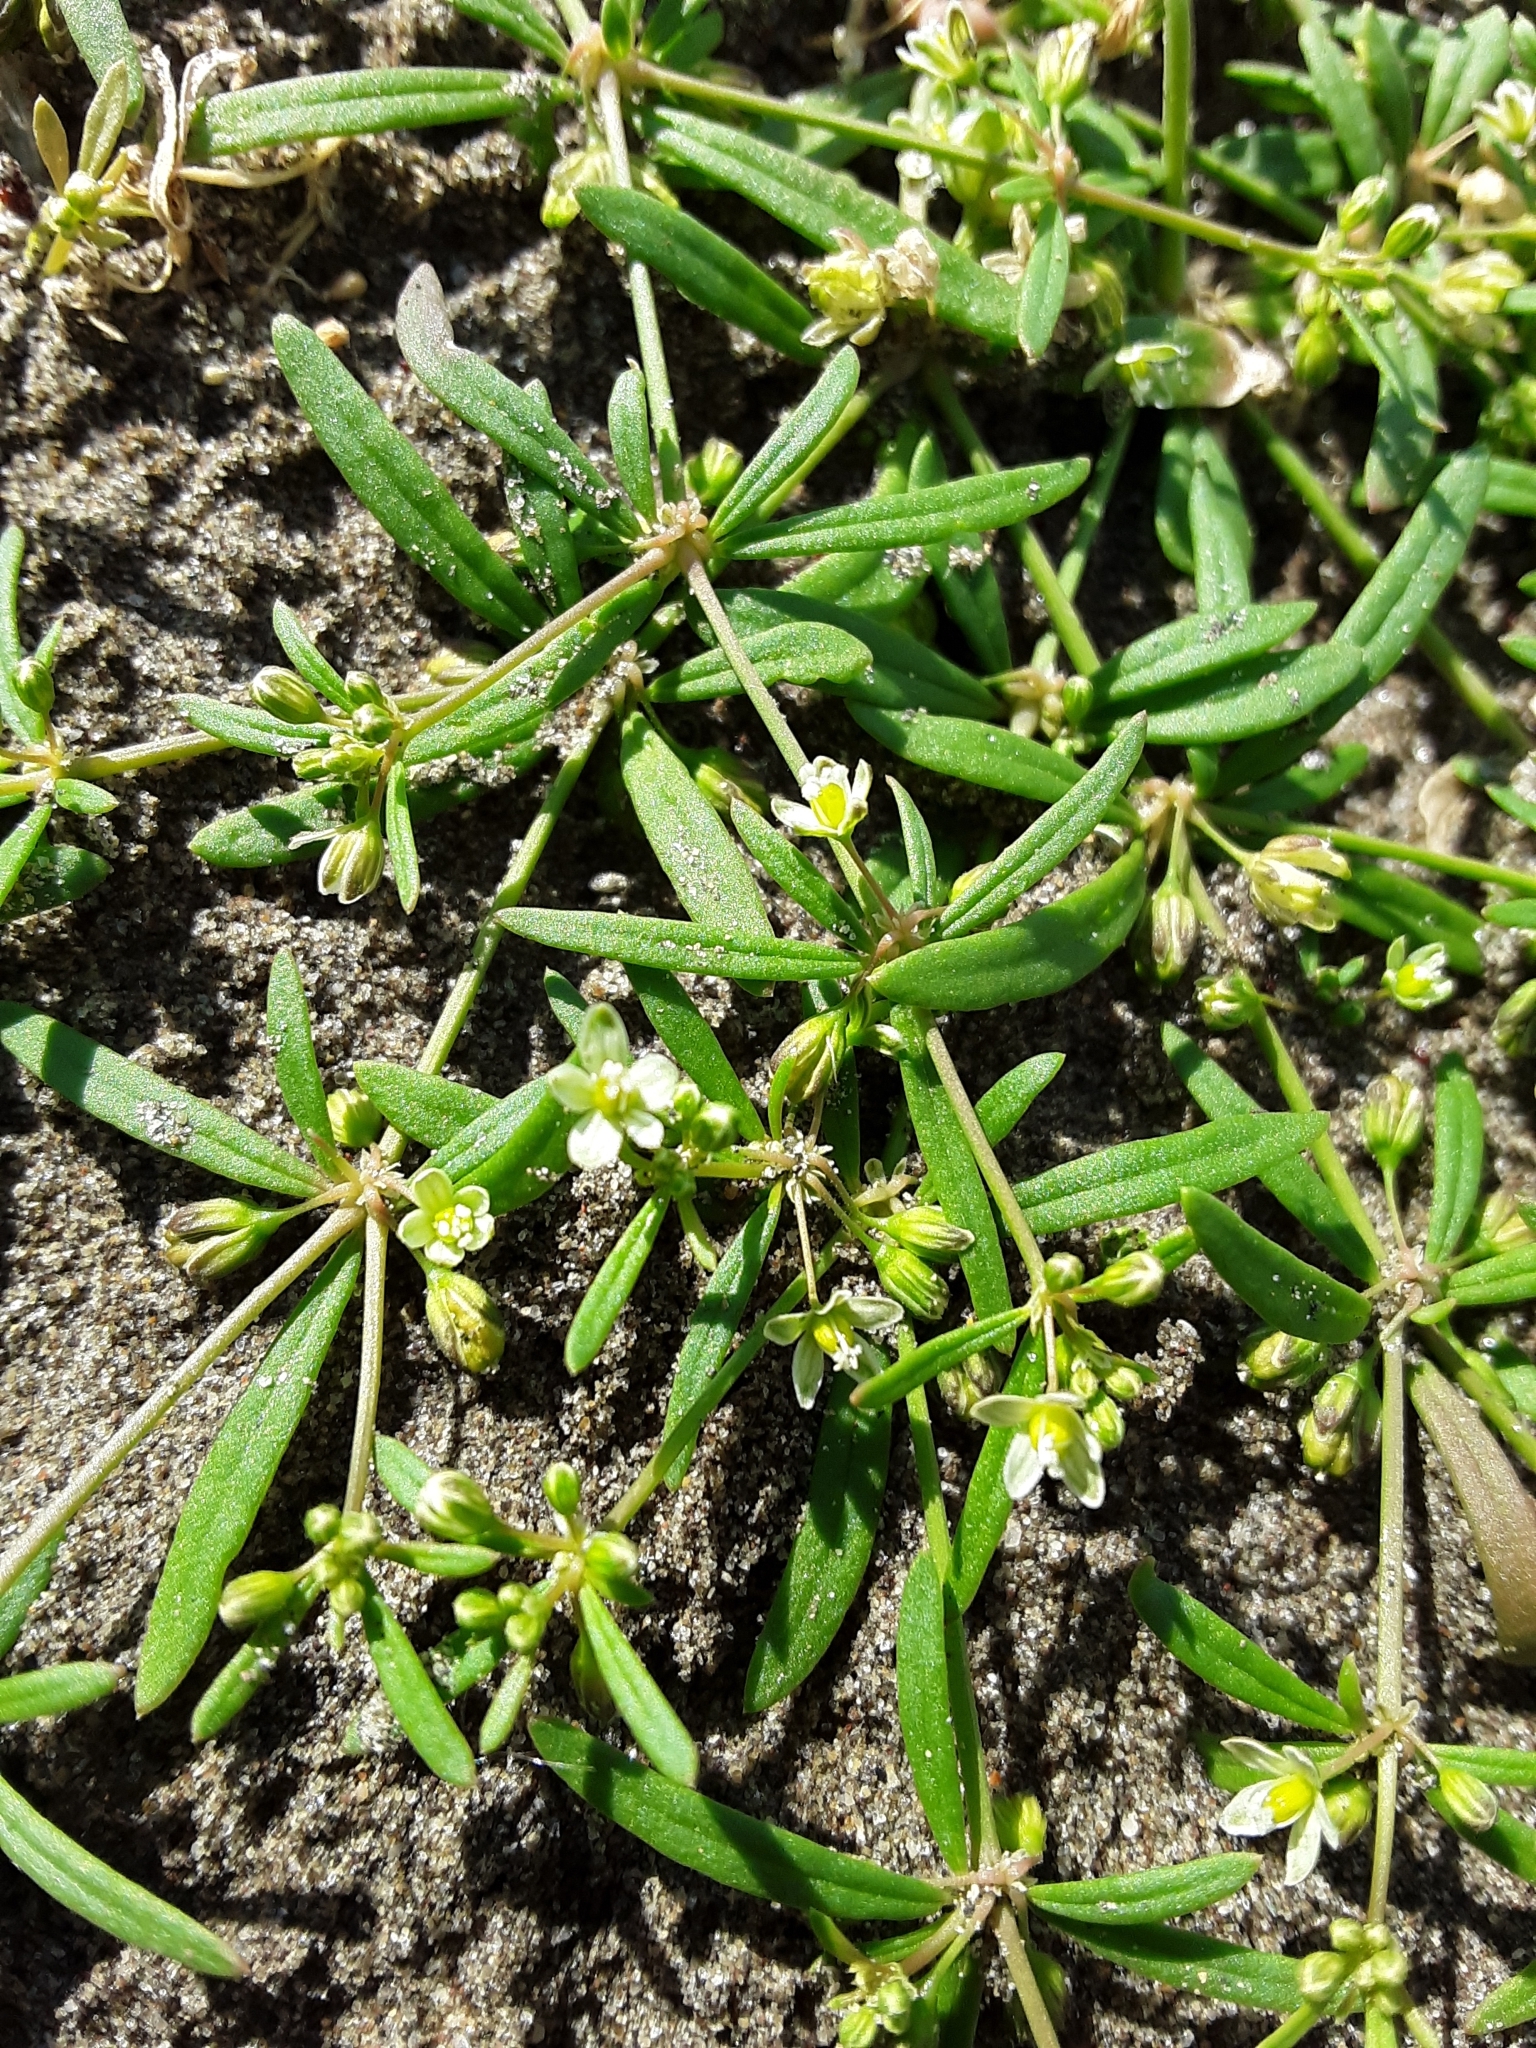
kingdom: Plantae
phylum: Tracheophyta
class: Magnoliopsida
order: Caryophyllales
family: Molluginaceae
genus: Mollugo
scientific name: Mollugo verticillata
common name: Green carpetweed
